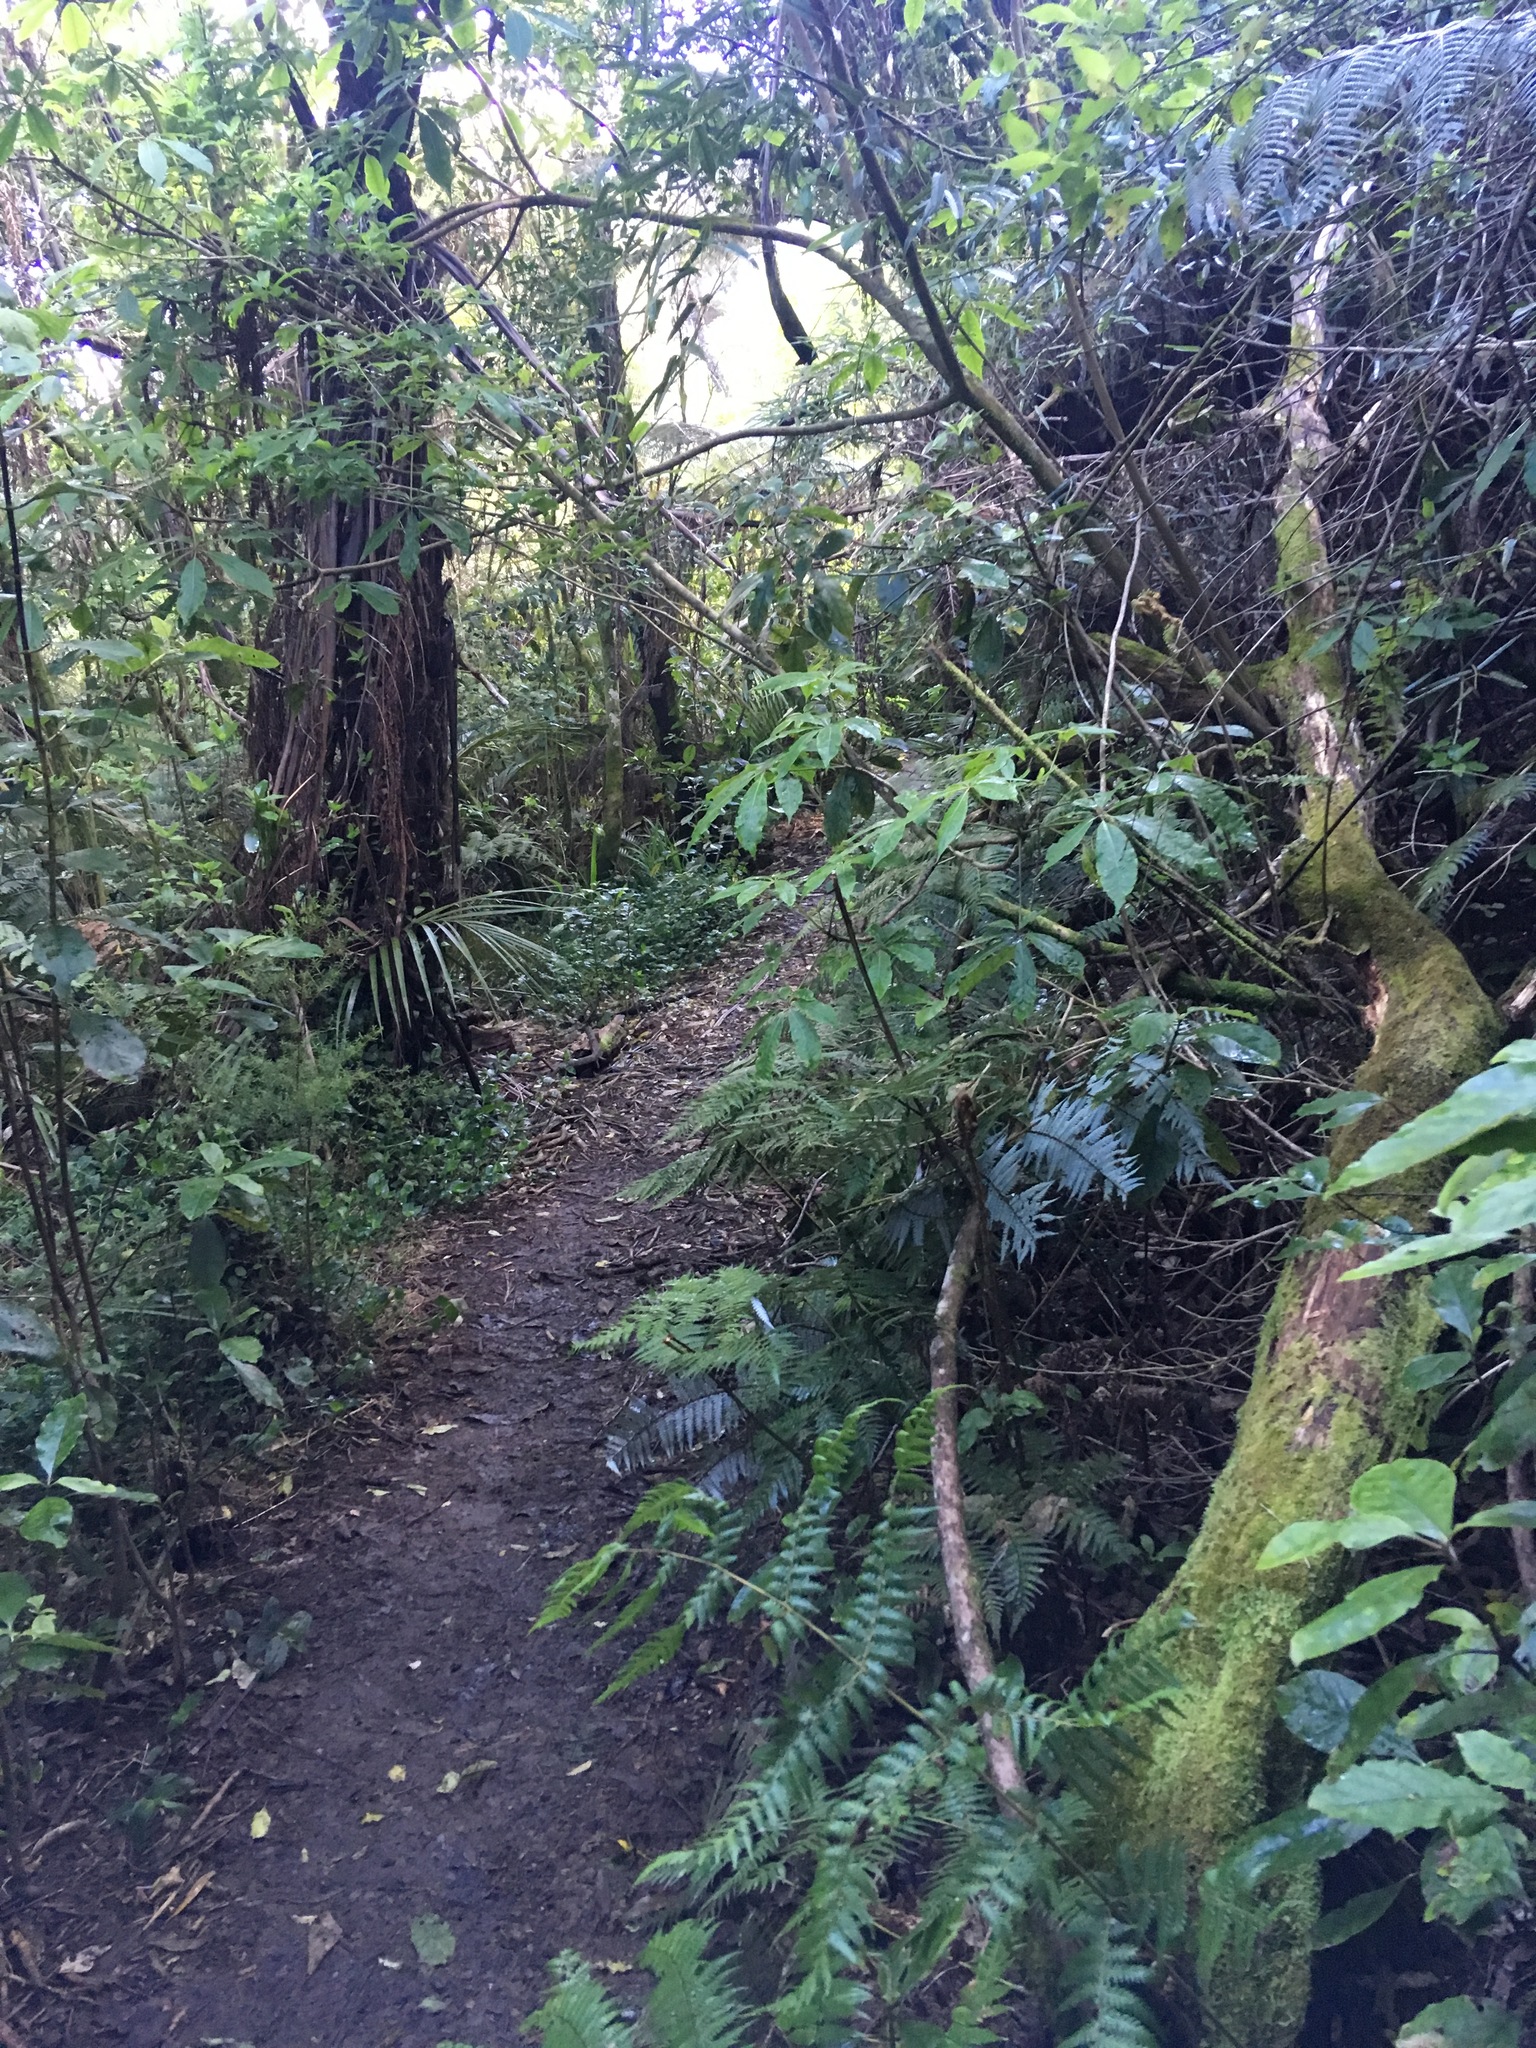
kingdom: Plantae
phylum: Tracheophyta
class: Magnoliopsida
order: Apiales
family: Araliaceae
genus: Schefflera
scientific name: Schefflera digitata
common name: Pate
